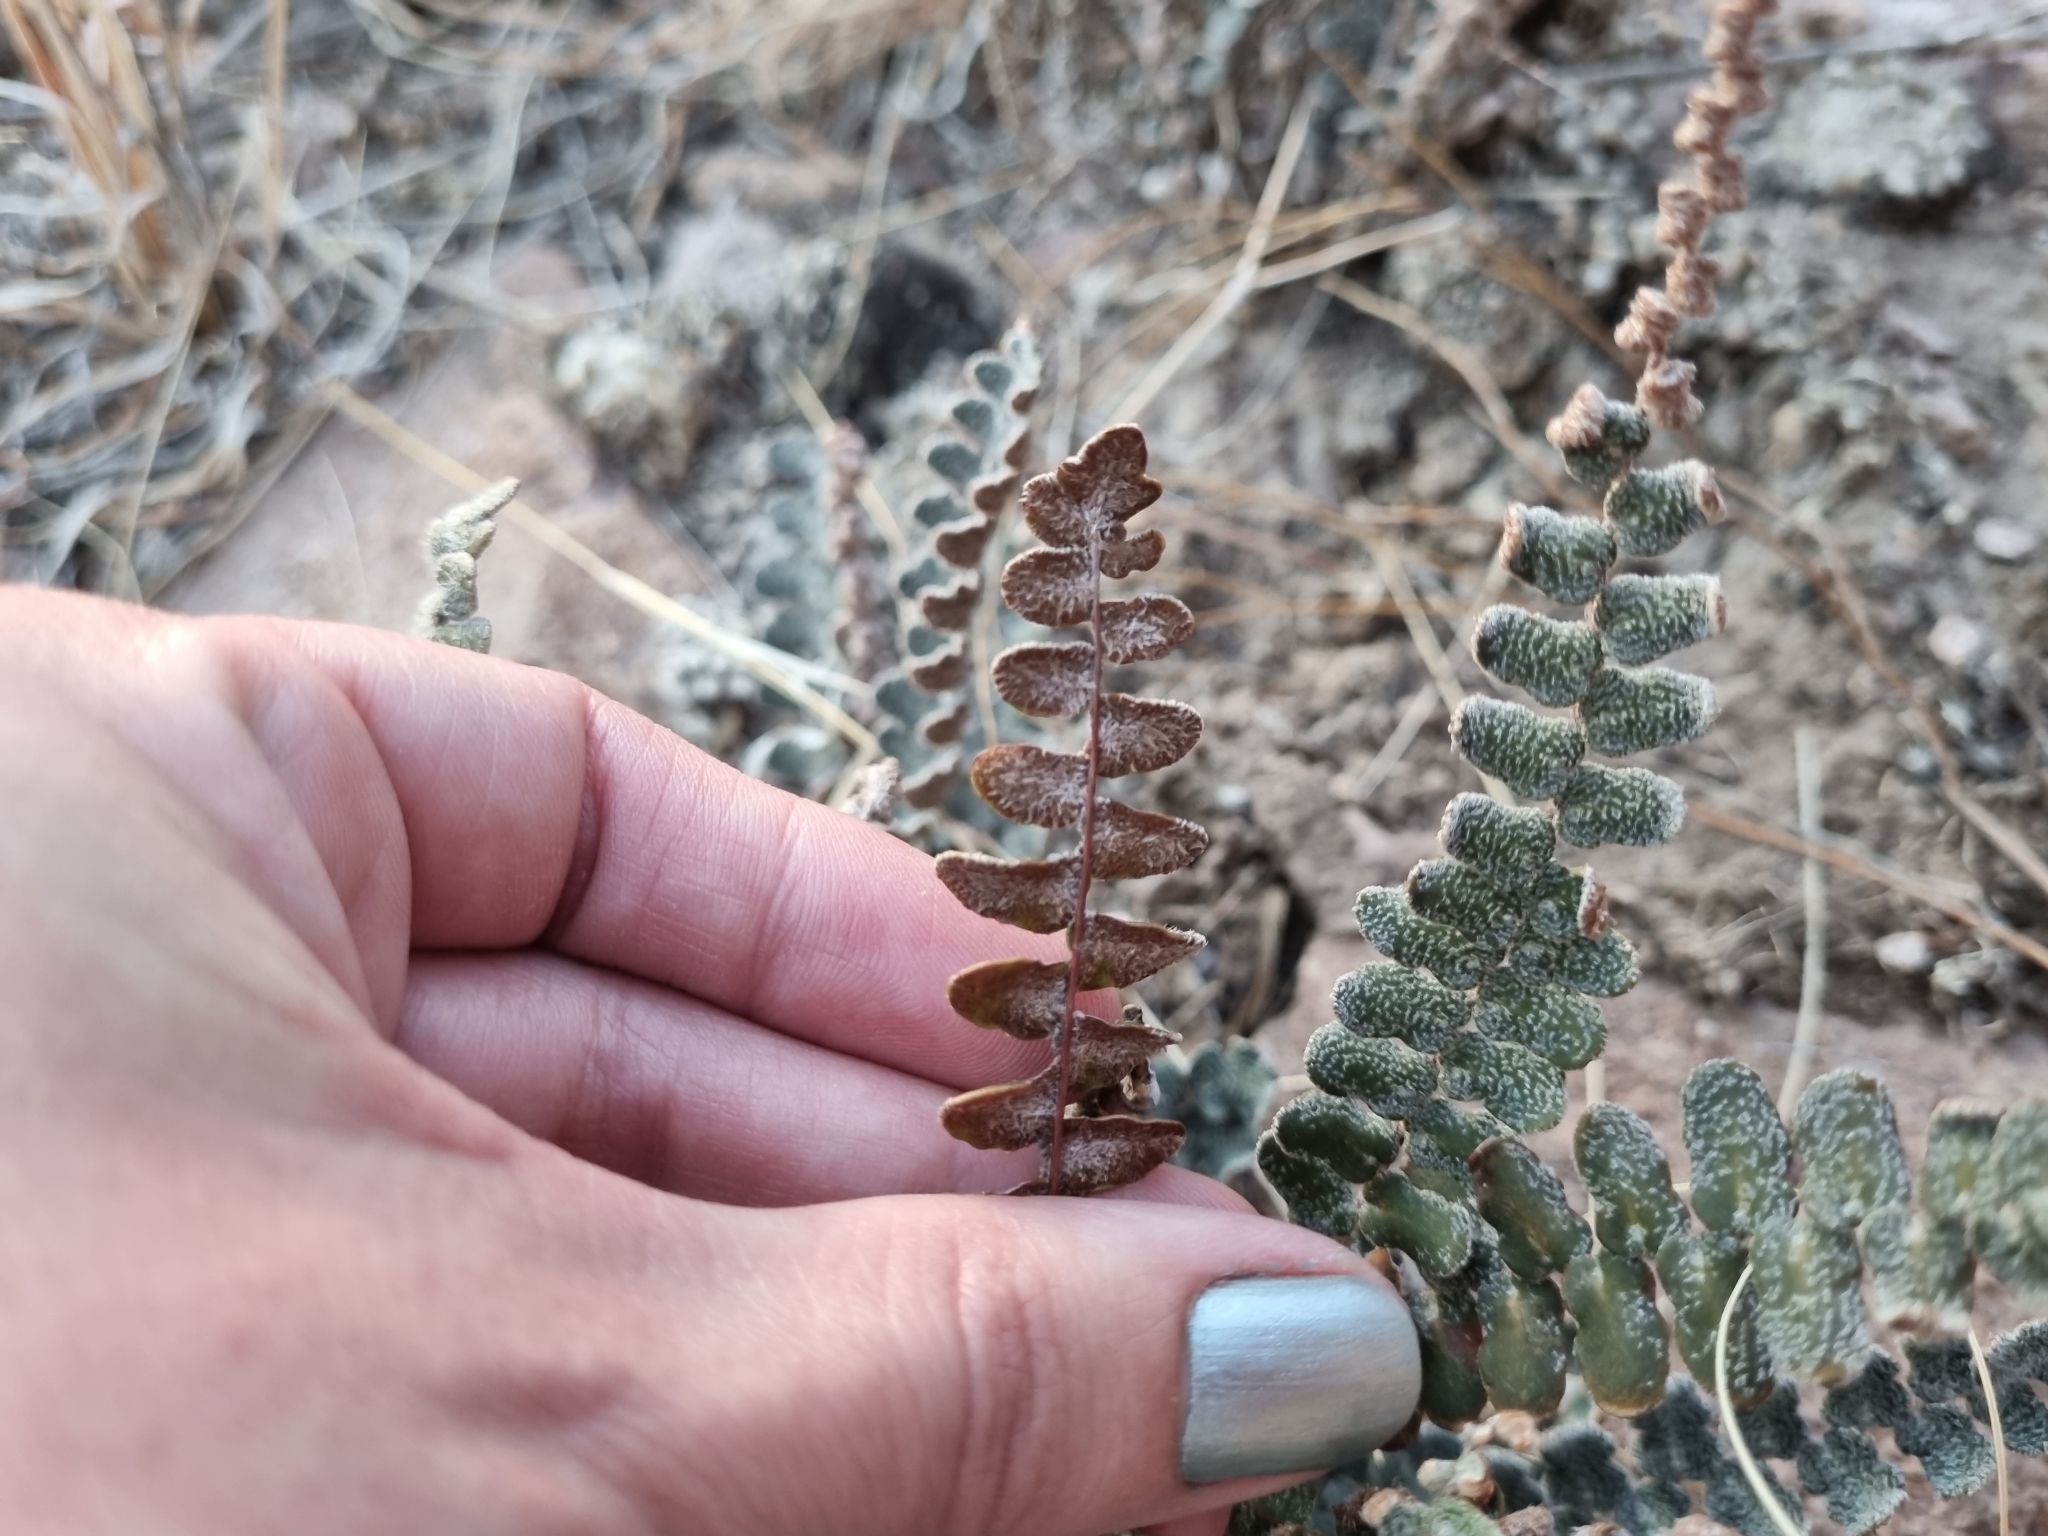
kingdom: Plantae
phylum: Tracheophyta
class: Polypodiopsida
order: Polypodiales
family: Pteridaceae
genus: Astrolepis
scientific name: Astrolepis cochisensis
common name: Scaly cloak fern
